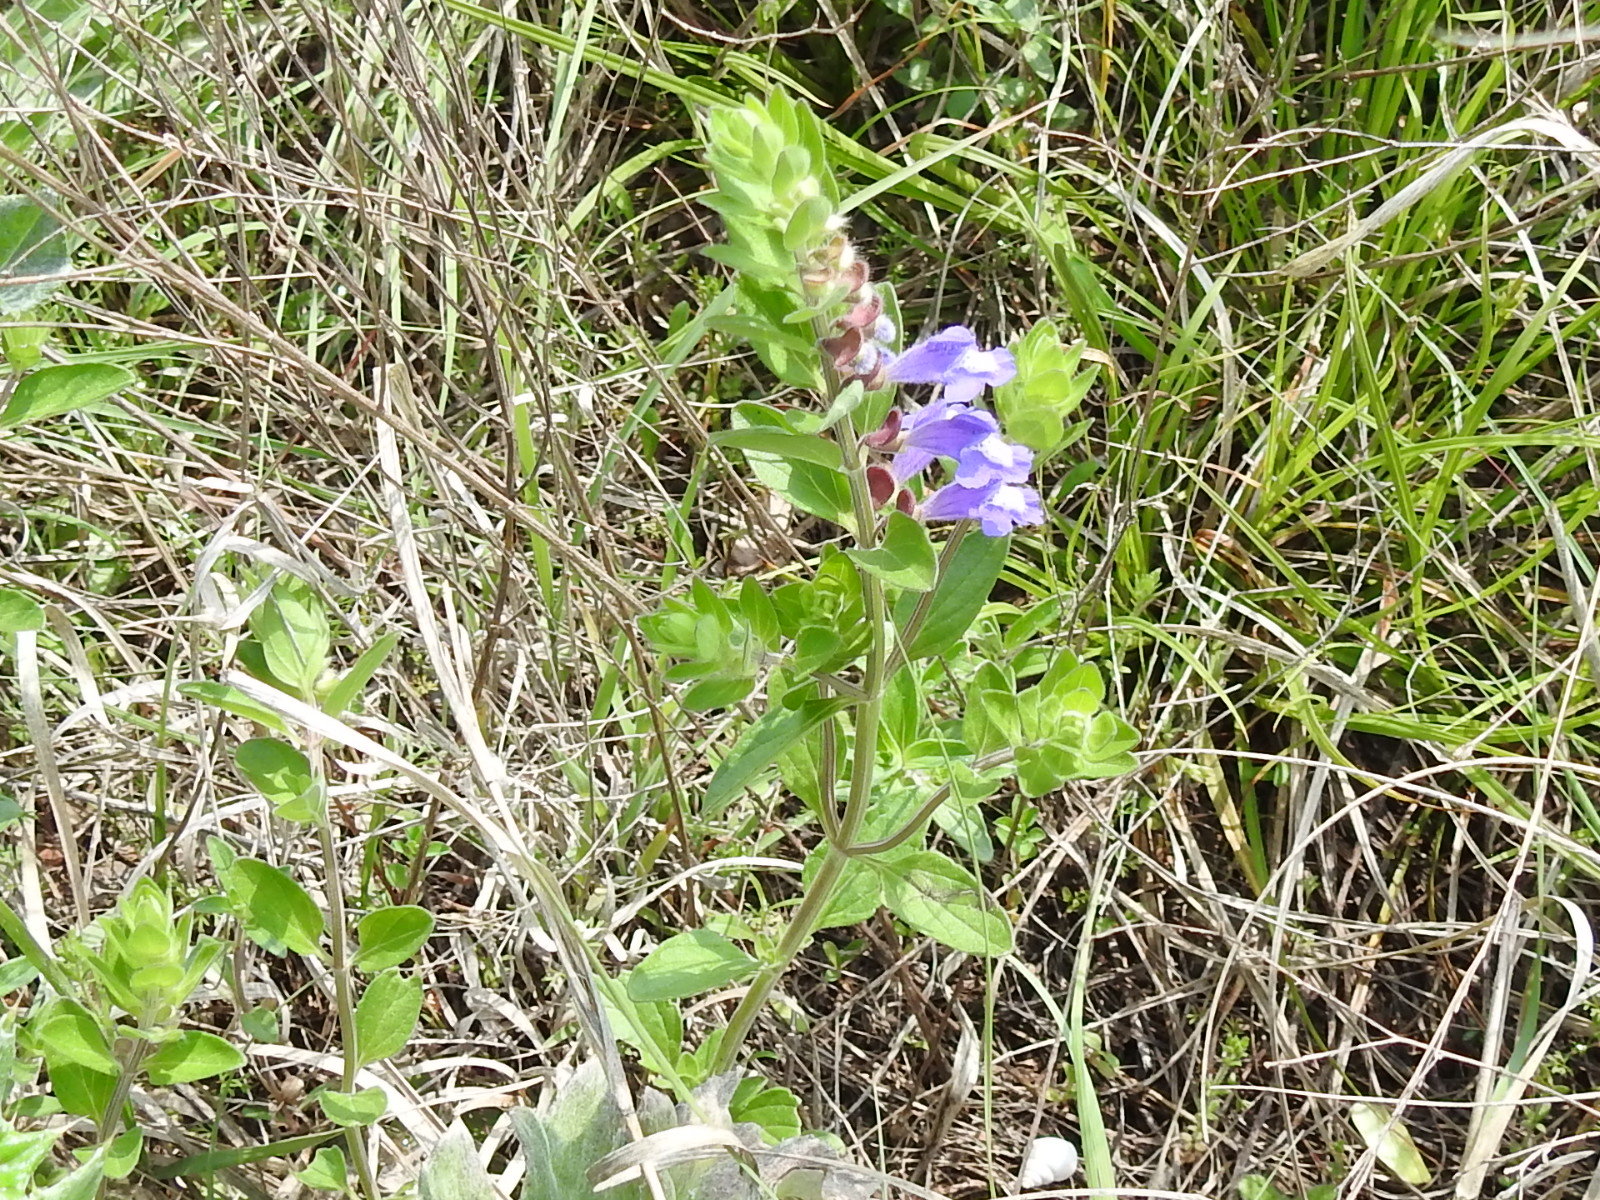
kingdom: Plantae
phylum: Tracheophyta
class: Magnoliopsida
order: Lamiales
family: Lamiaceae
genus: Scutellaria
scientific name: Scutellaria drummondii
